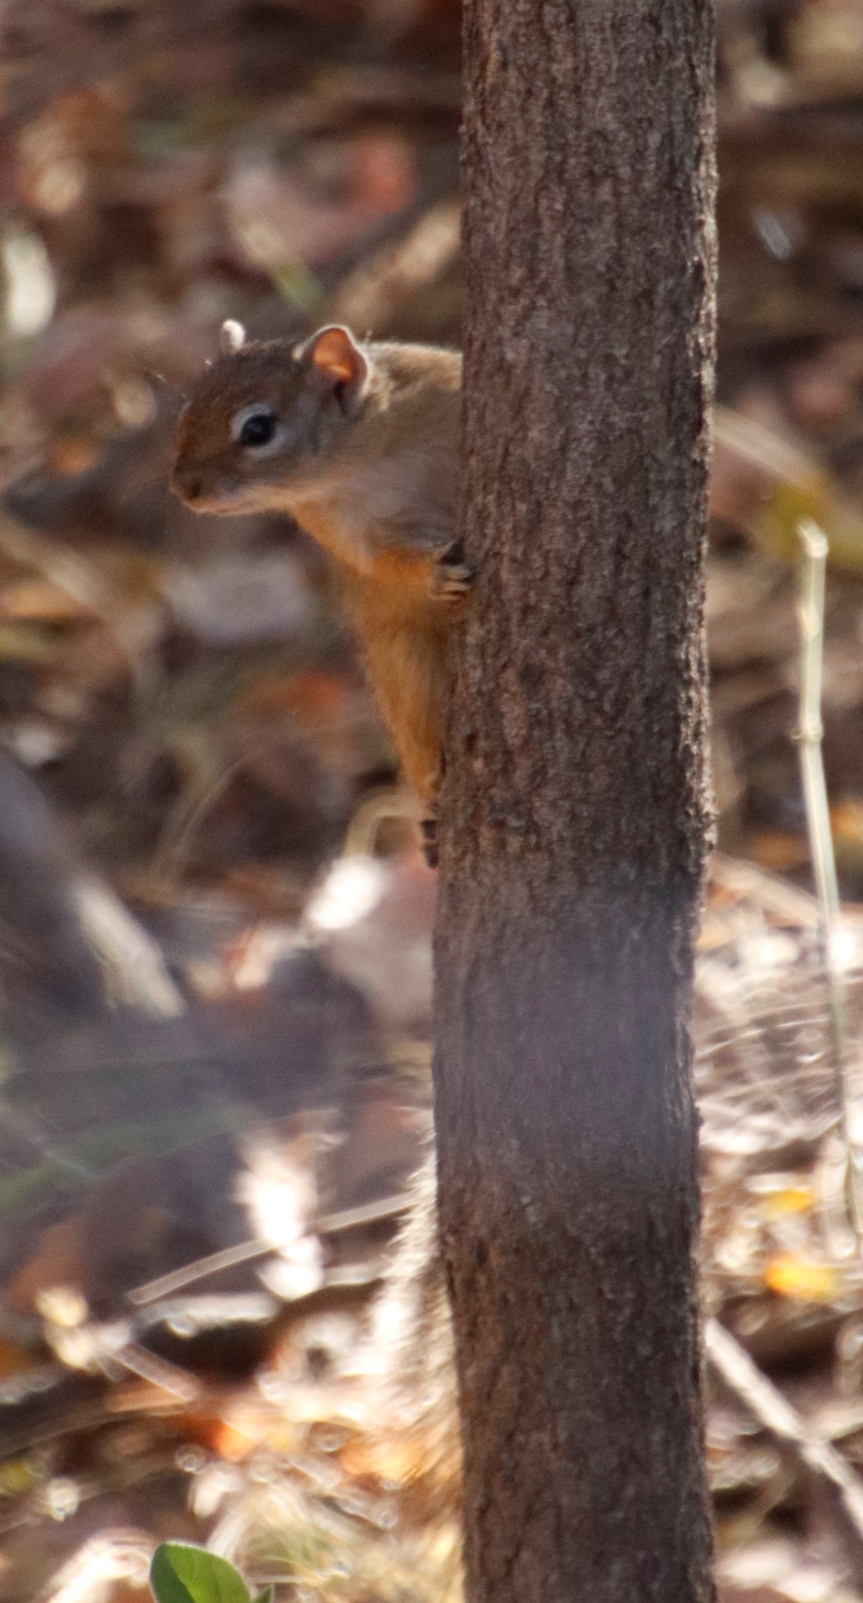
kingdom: Animalia
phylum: Chordata
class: Mammalia
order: Rodentia
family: Sciuridae
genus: Paraxerus
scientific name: Paraxerus cepapi
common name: Smith's bush squirrel
